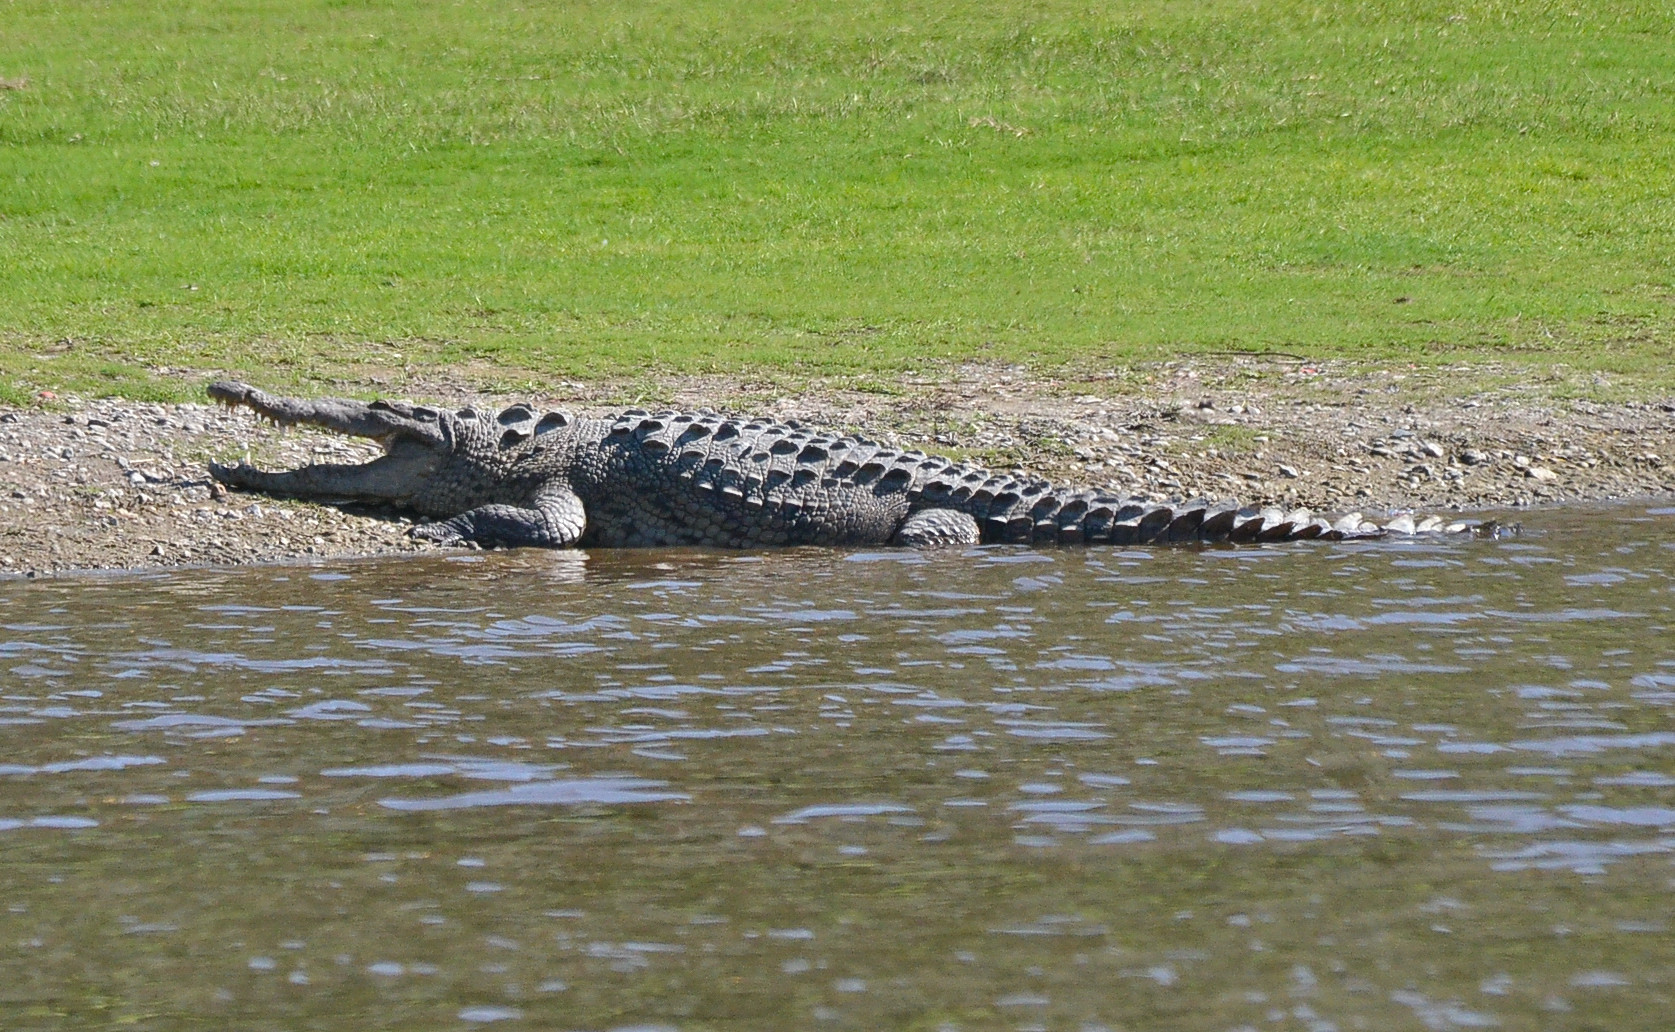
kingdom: Animalia
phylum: Chordata
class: Crocodylia
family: Crocodylidae
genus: Crocodylus
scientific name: Crocodylus acutus
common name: American crocodile
